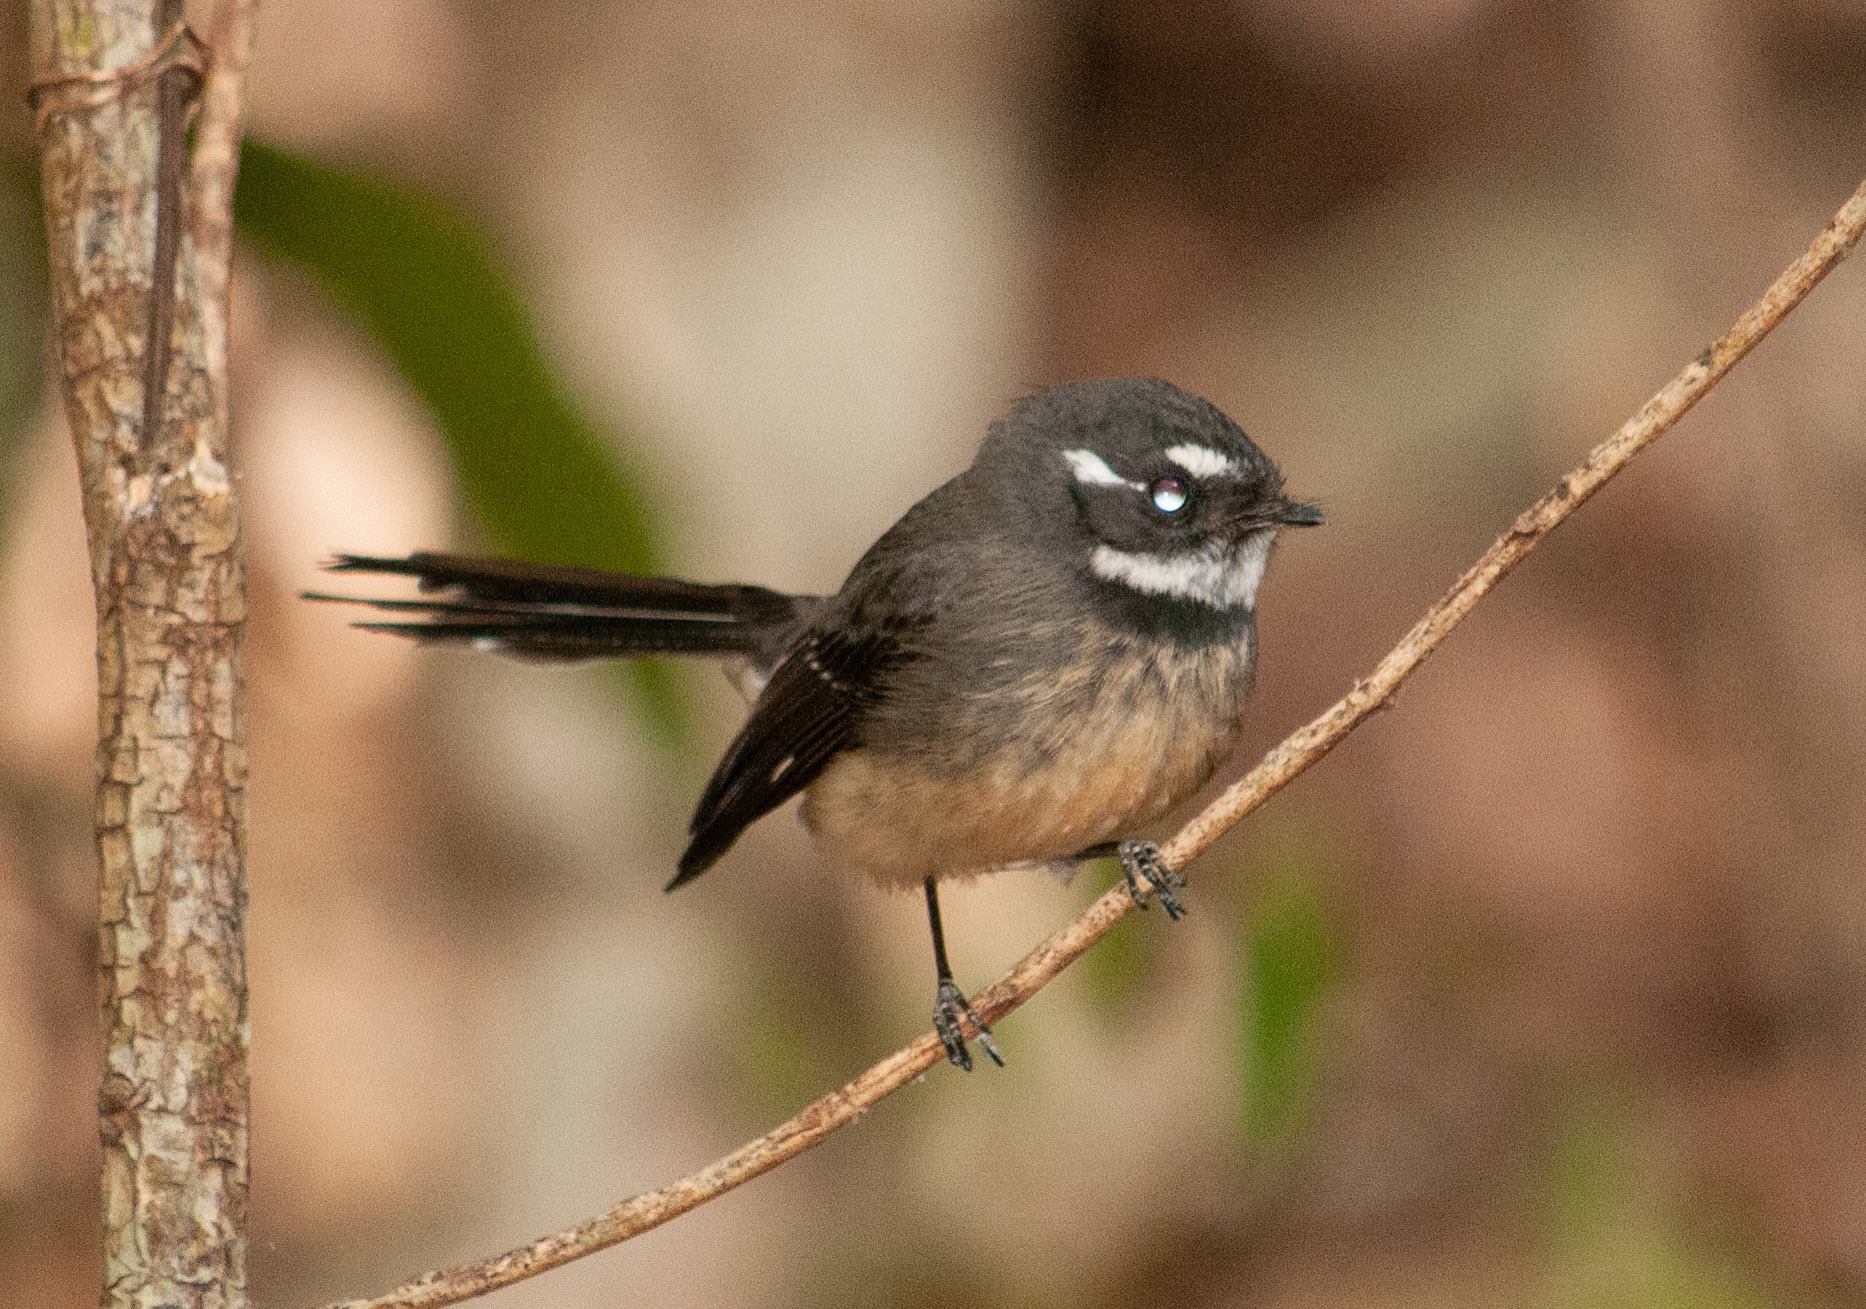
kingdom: Animalia
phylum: Chordata
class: Aves
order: Passeriformes
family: Rhipiduridae
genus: Rhipidura
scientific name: Rhipidura albiscapa
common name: Grey fantail
